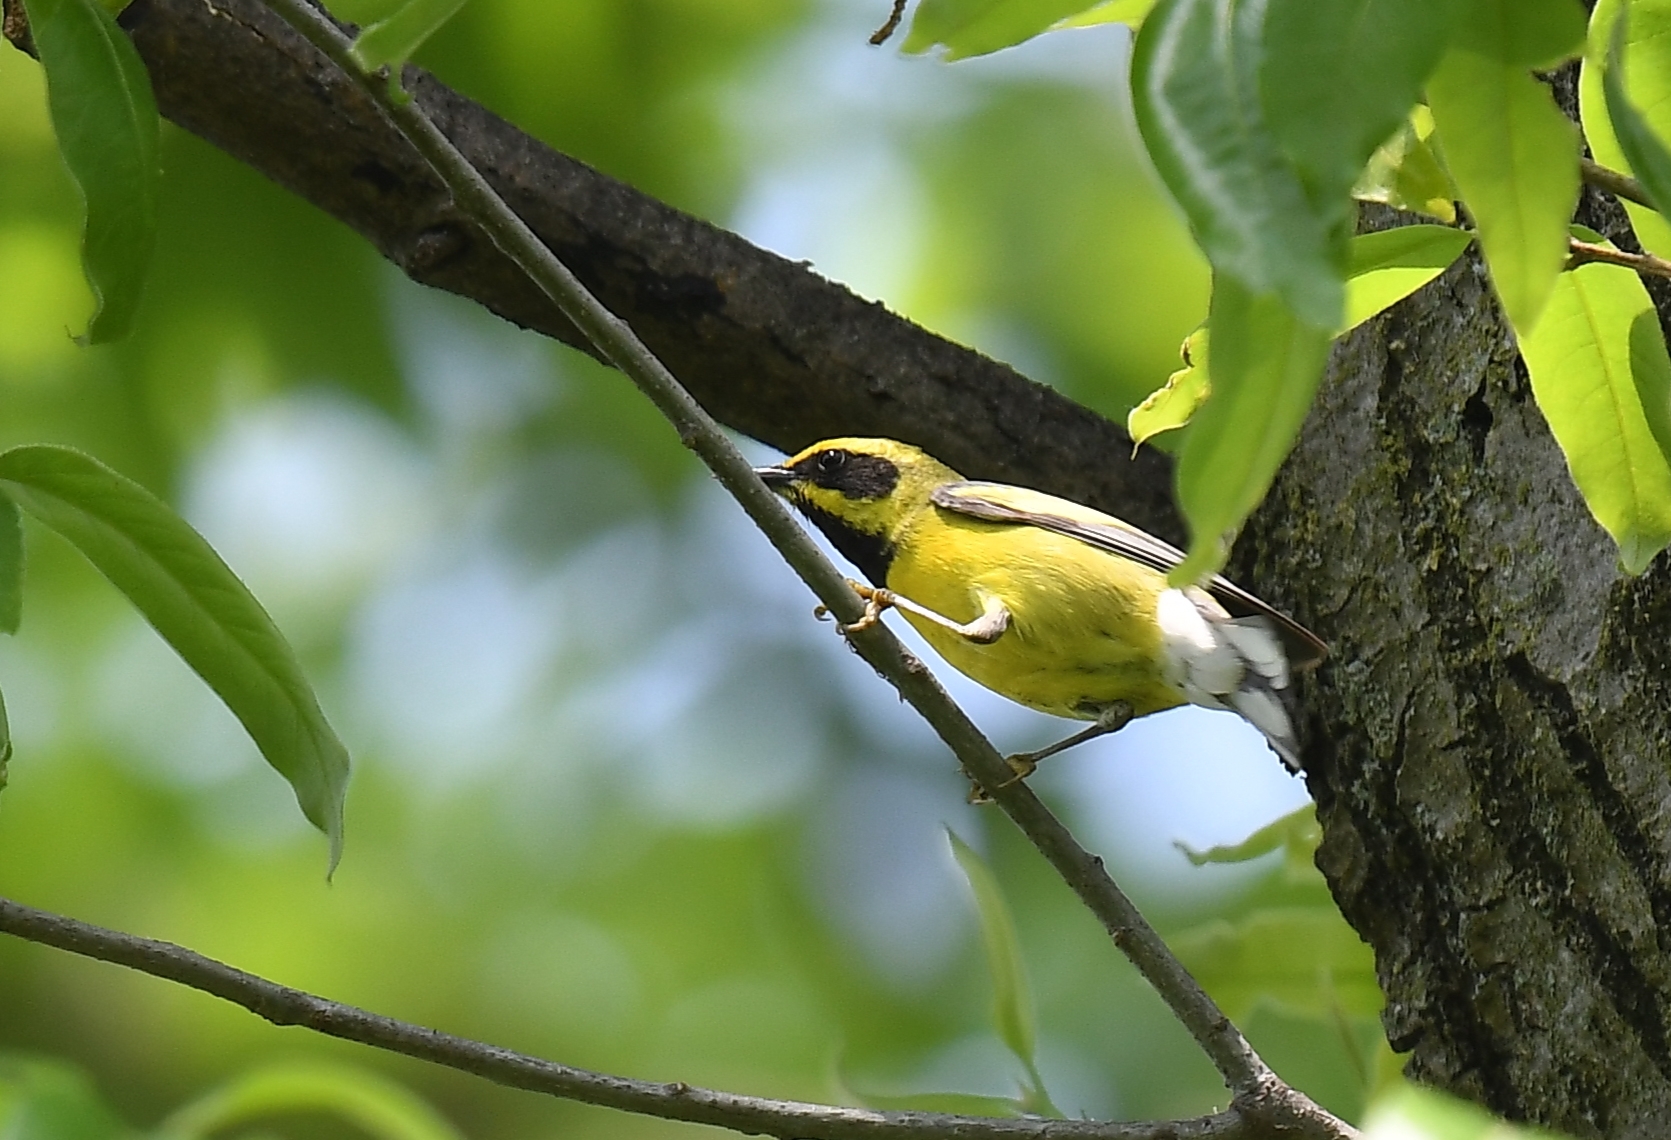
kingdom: Animalia
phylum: Chordata
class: Aves
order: Passeriformes
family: Parulidae
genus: Vermivora
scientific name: Vermivora
